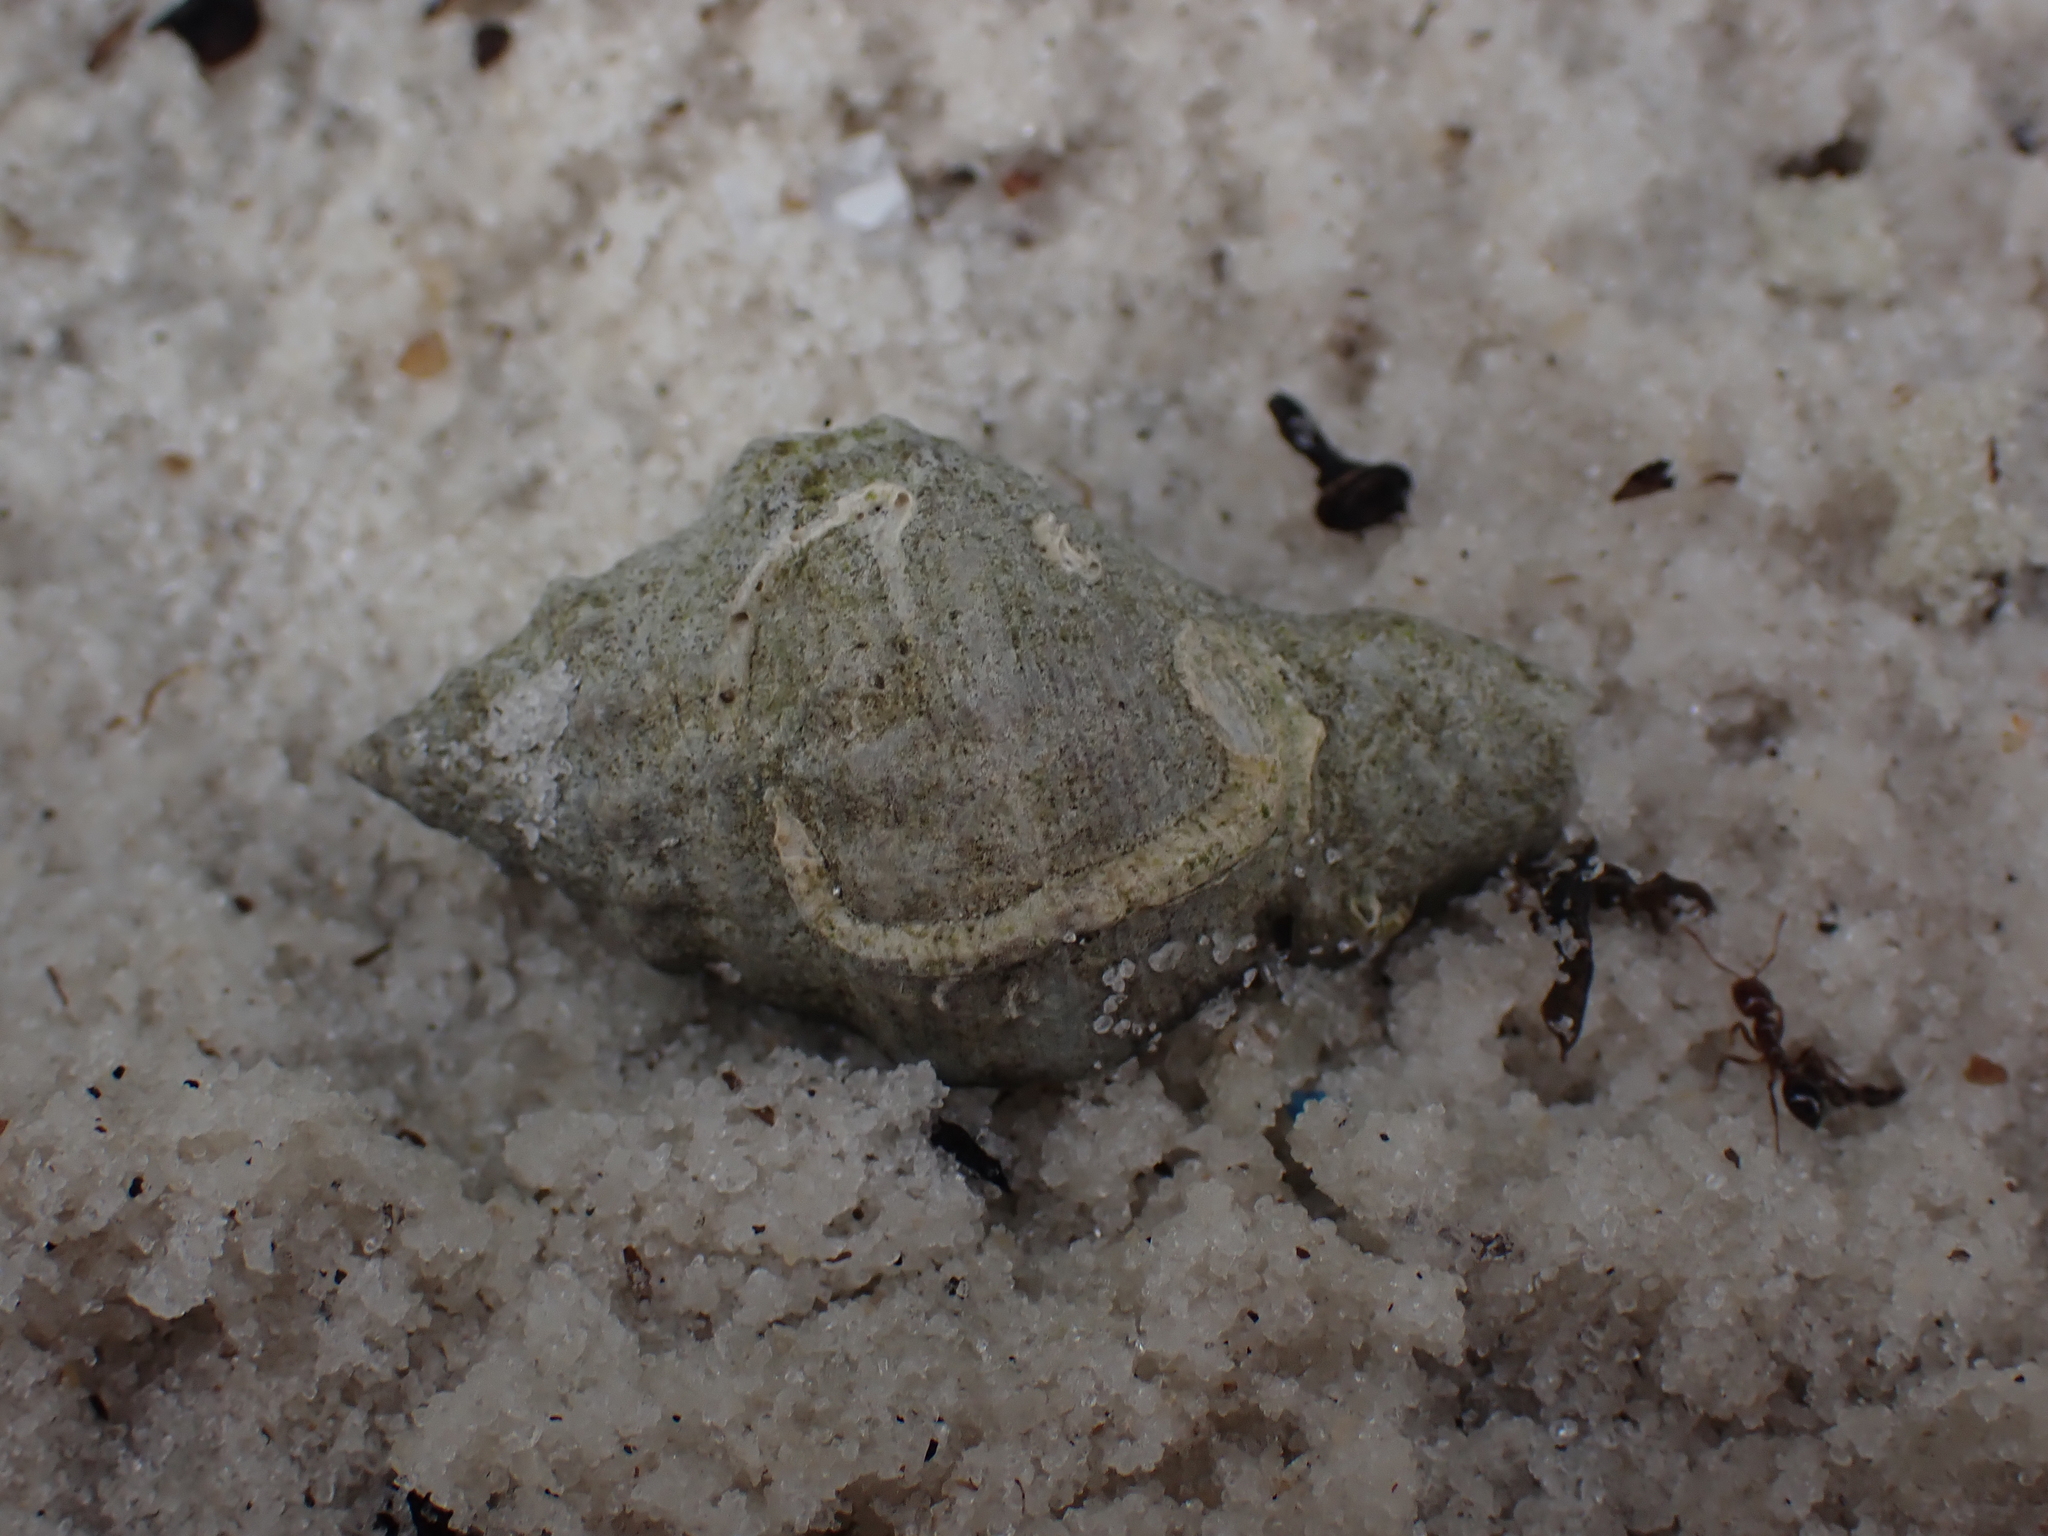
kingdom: Animalia
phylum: Mollusca
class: Gastropoda
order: Neogastropoda
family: Muricidae
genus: Stramonita
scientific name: Stramonita floridana
